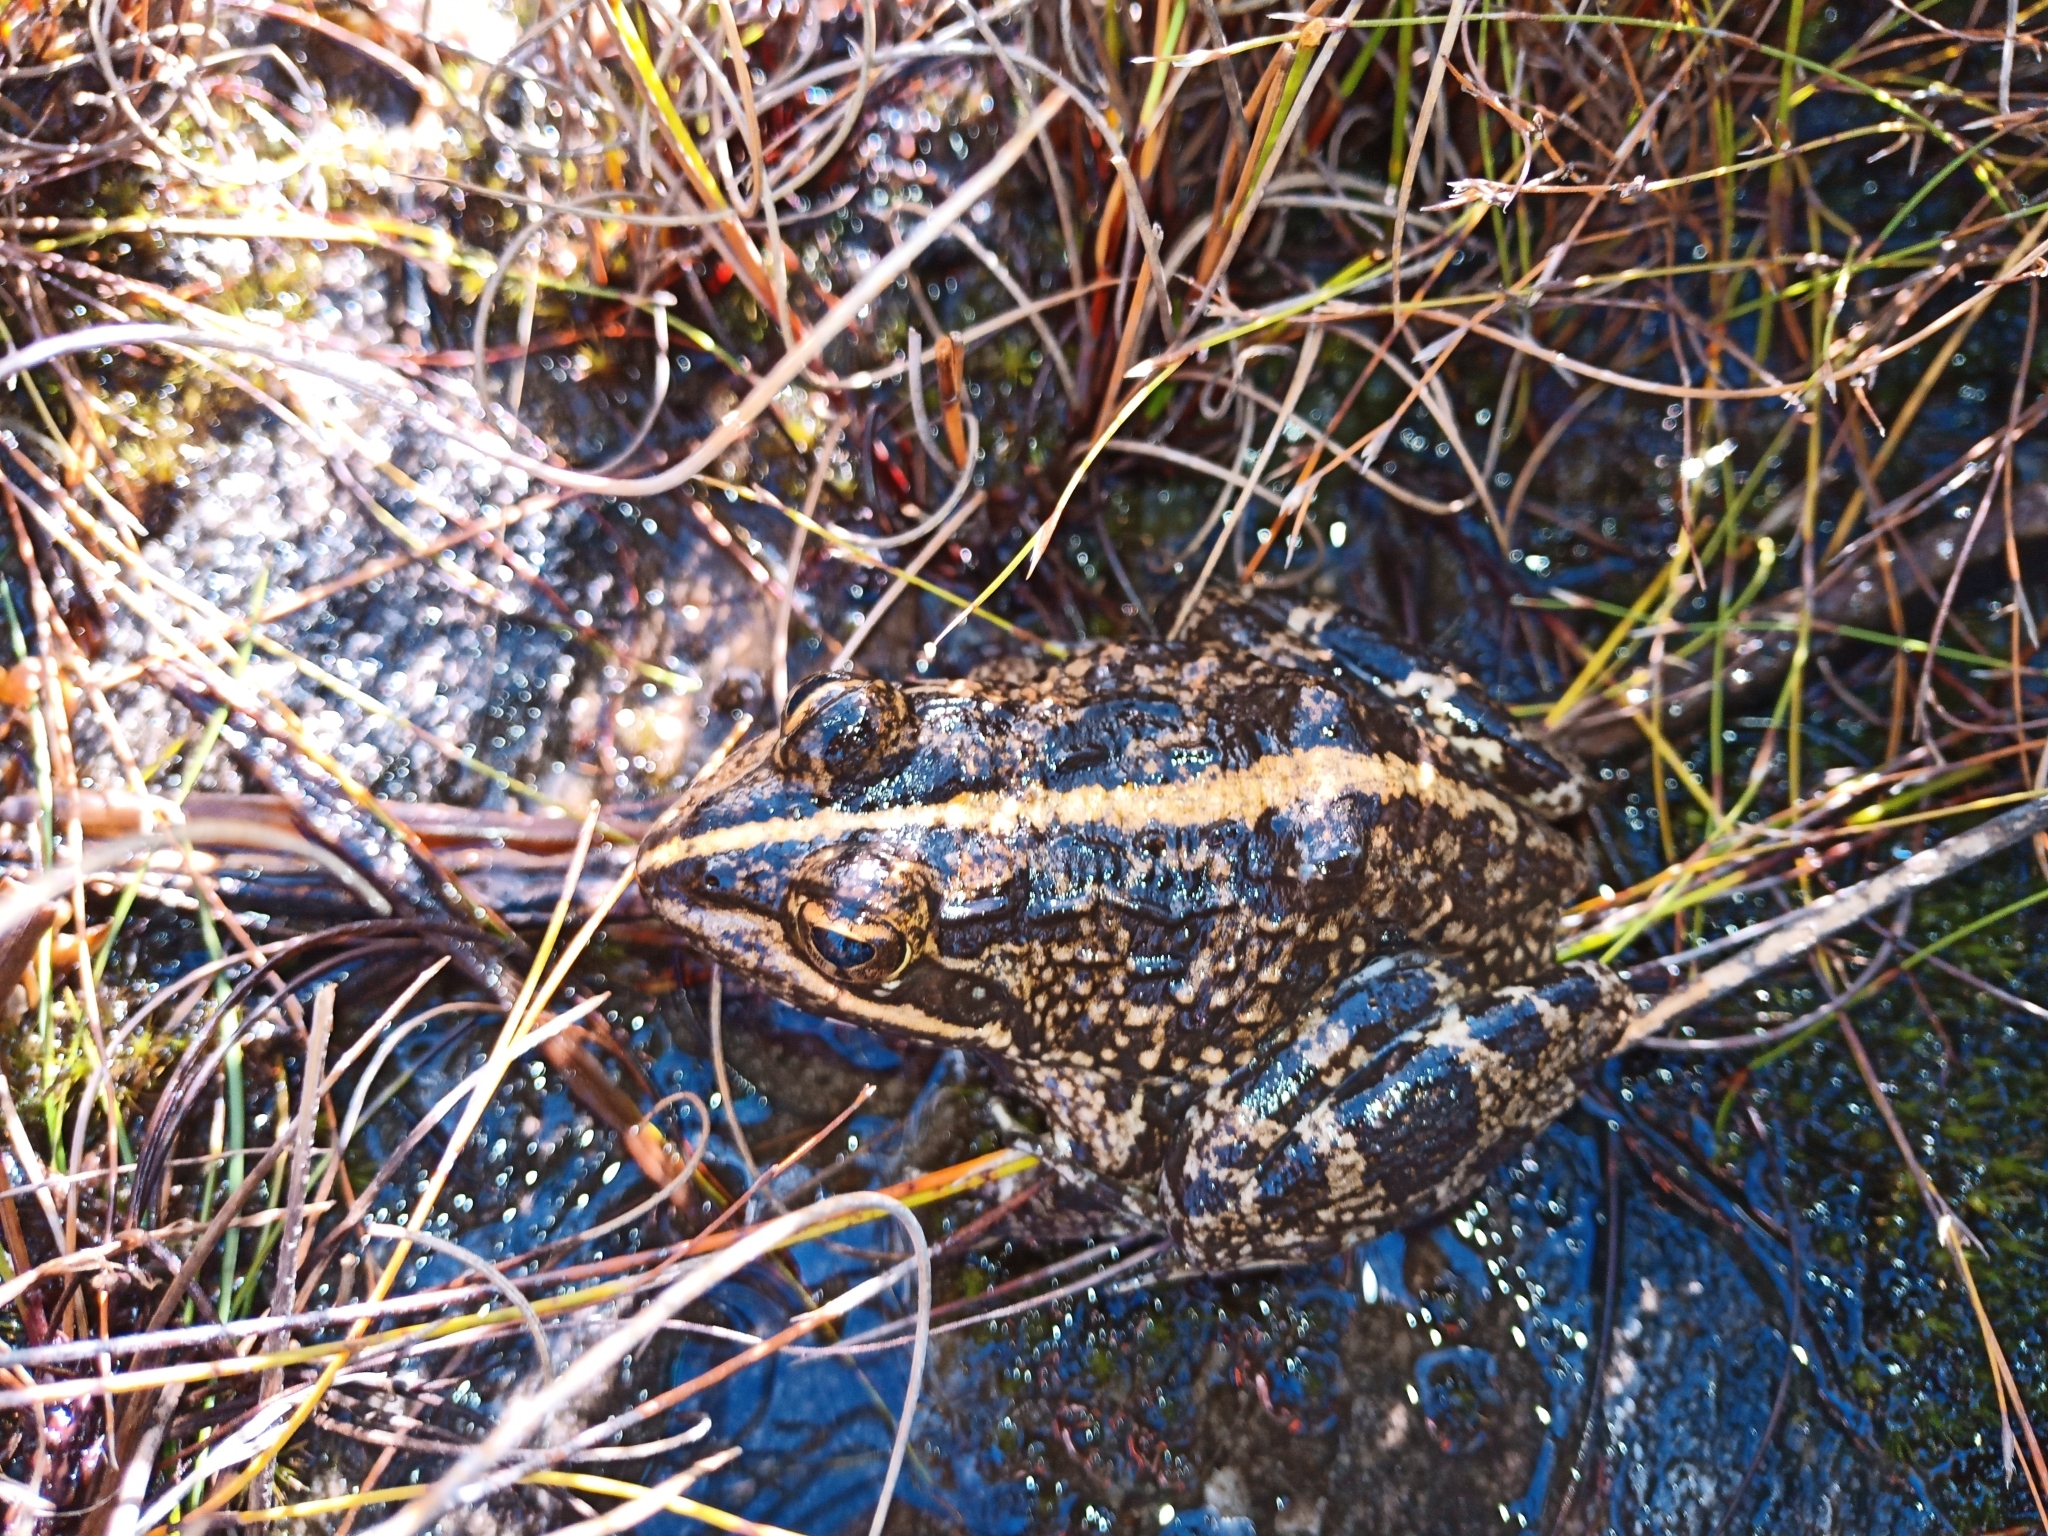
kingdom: Animalia
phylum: Chordata
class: Amphibia
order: Anura
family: Pyxicephalidae
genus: Amietia
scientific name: Amietia fuscigula
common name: Cape rana
